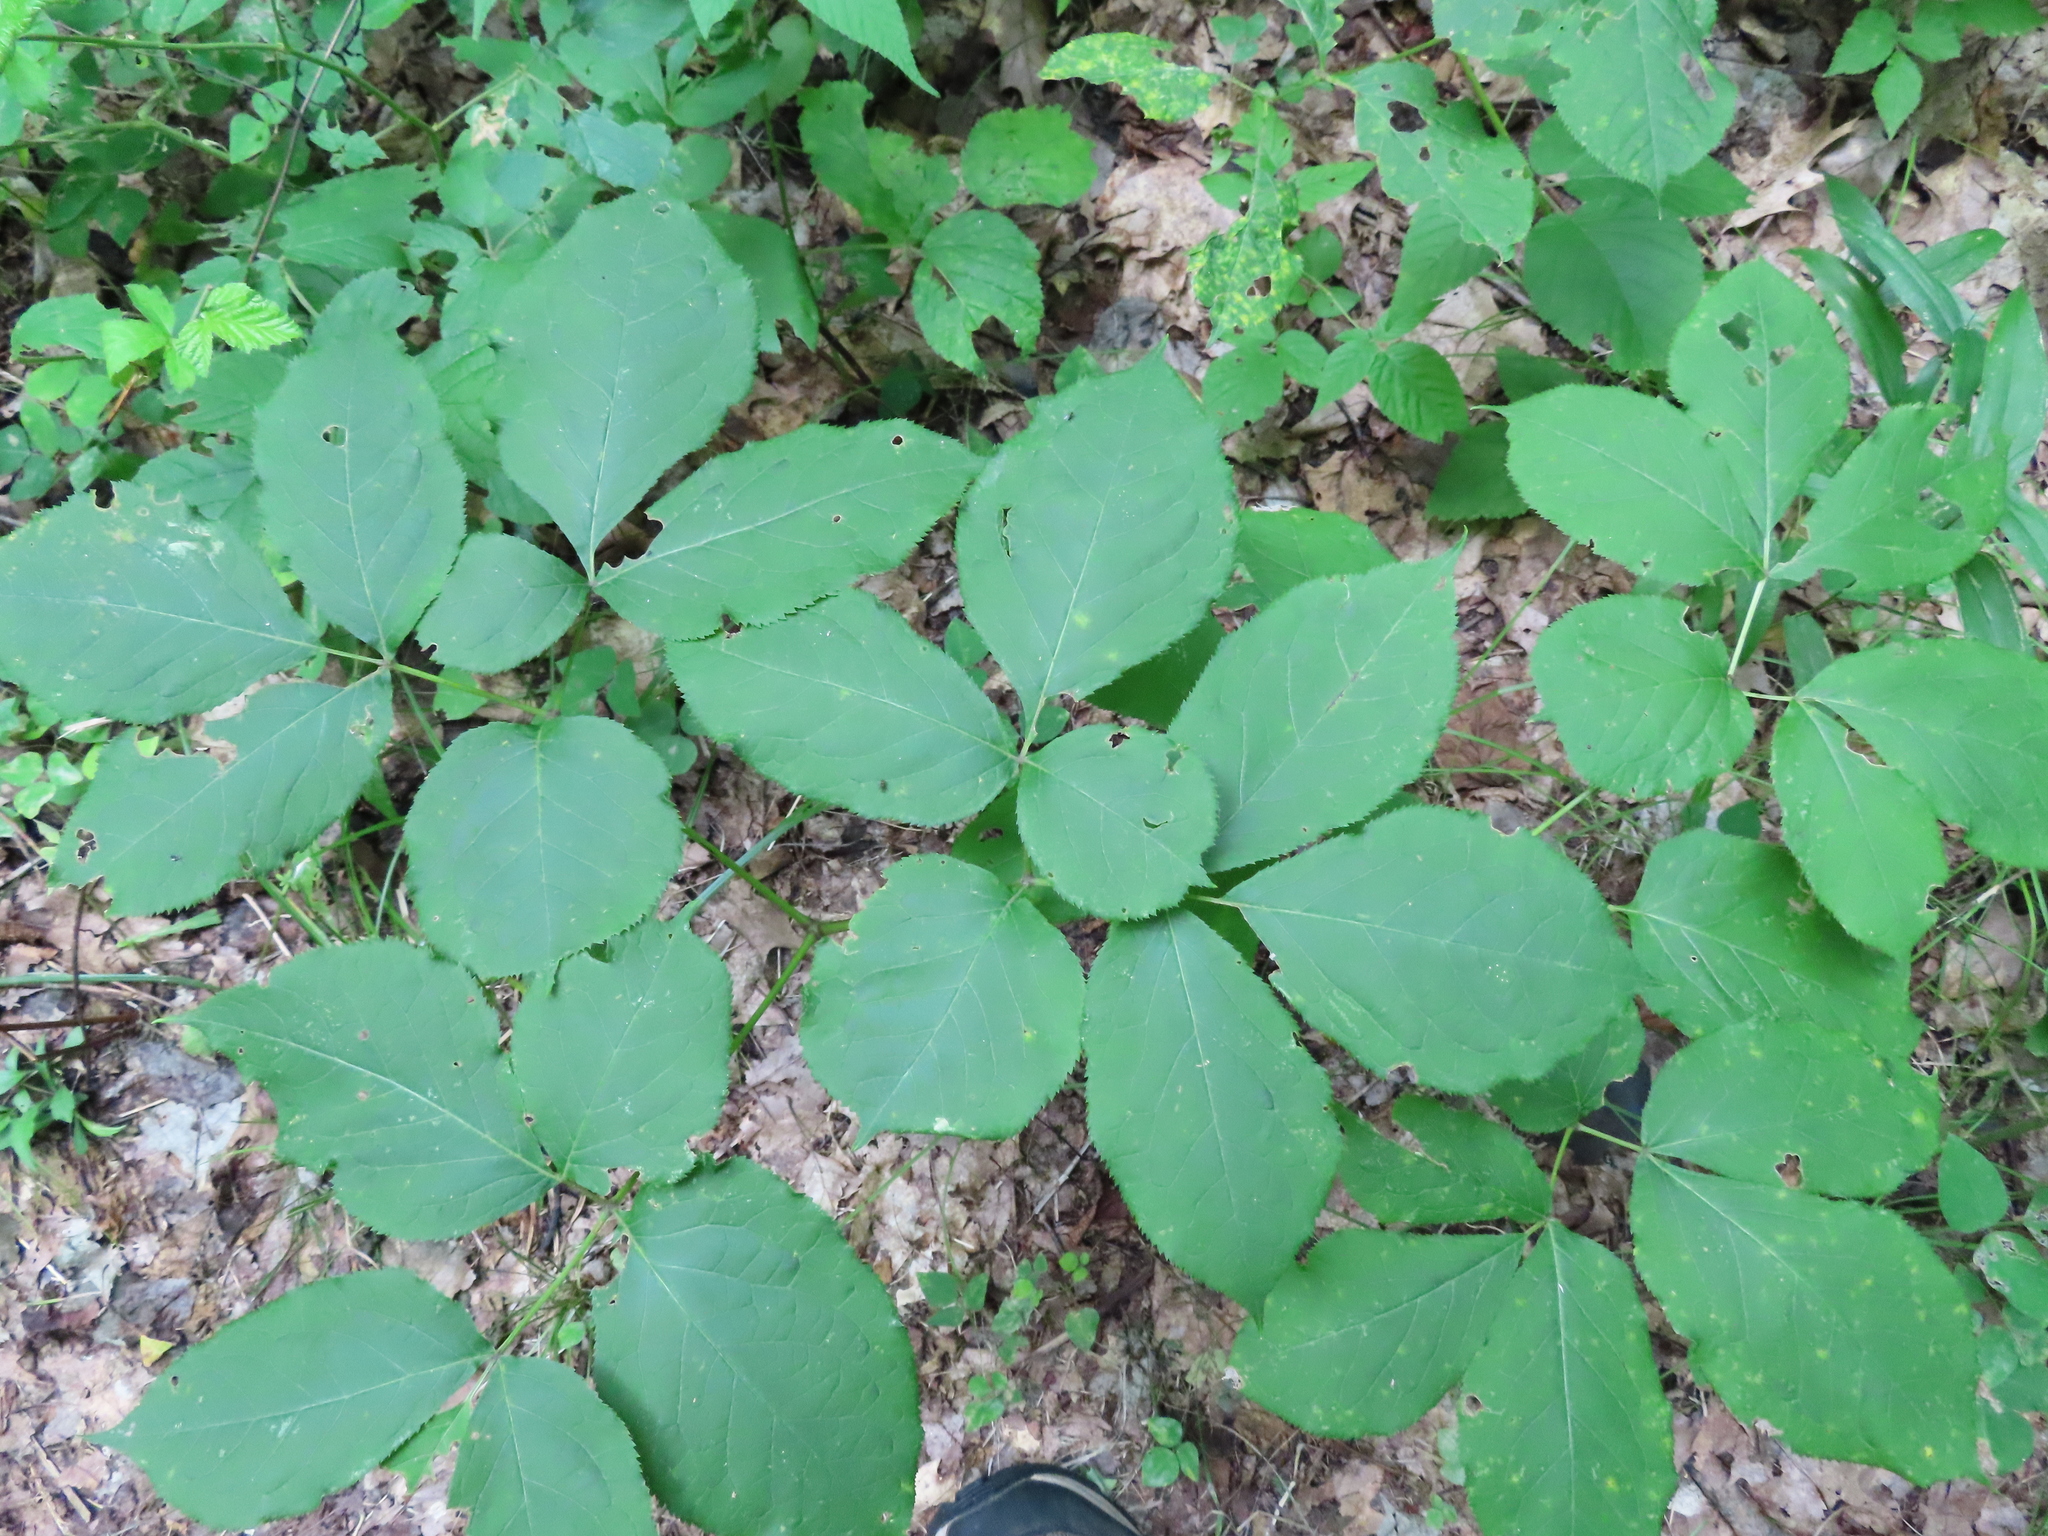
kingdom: Plantae
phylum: Tracheophyta
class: Magnoliopsida
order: Apiales
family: Araliaceae
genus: Aralia
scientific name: Aralia nudicaulis
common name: Wild sarsaparilla
